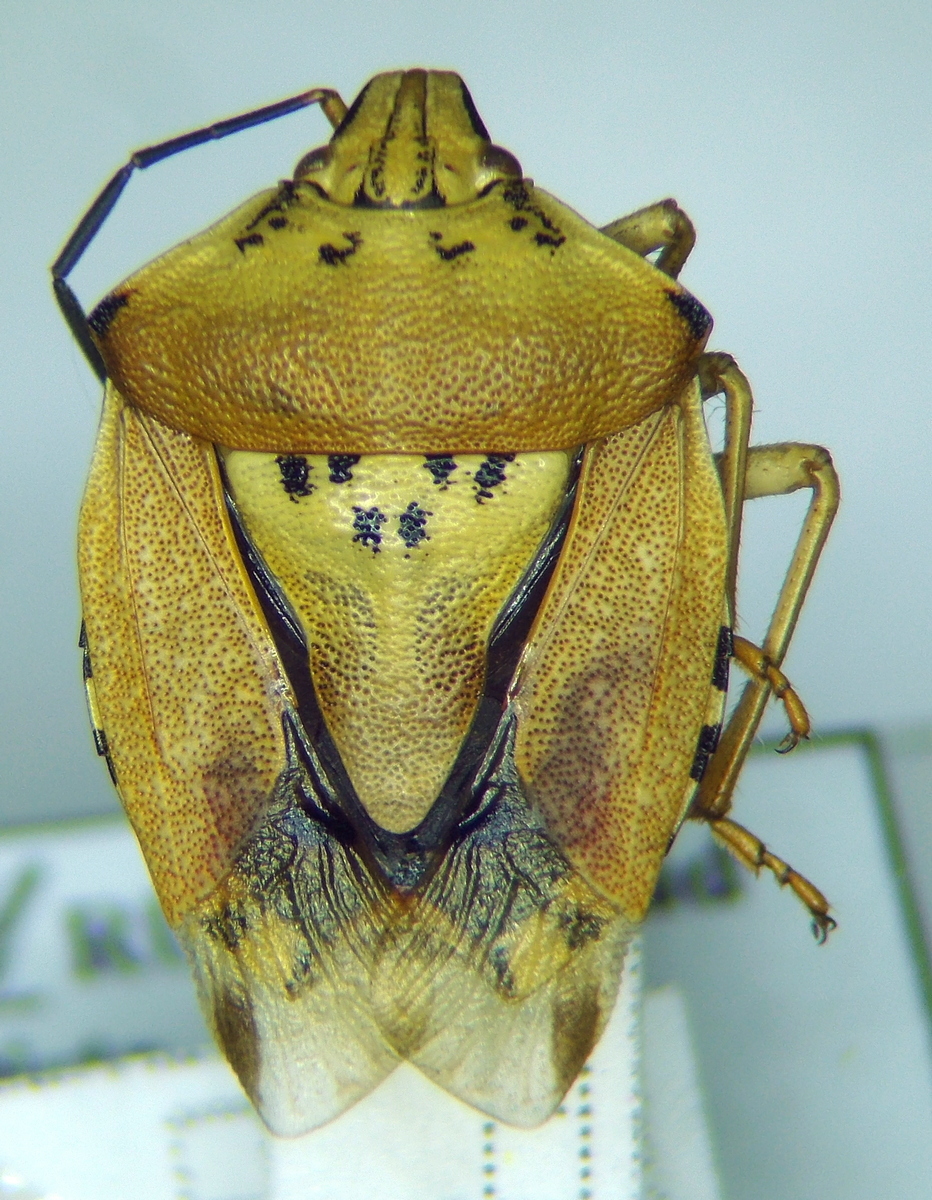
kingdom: Animalia
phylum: Arthropoda
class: Insecta
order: Hemiptera
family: Pentatomidae
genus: Carpocoris
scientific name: Carpocoris purpureipennis
